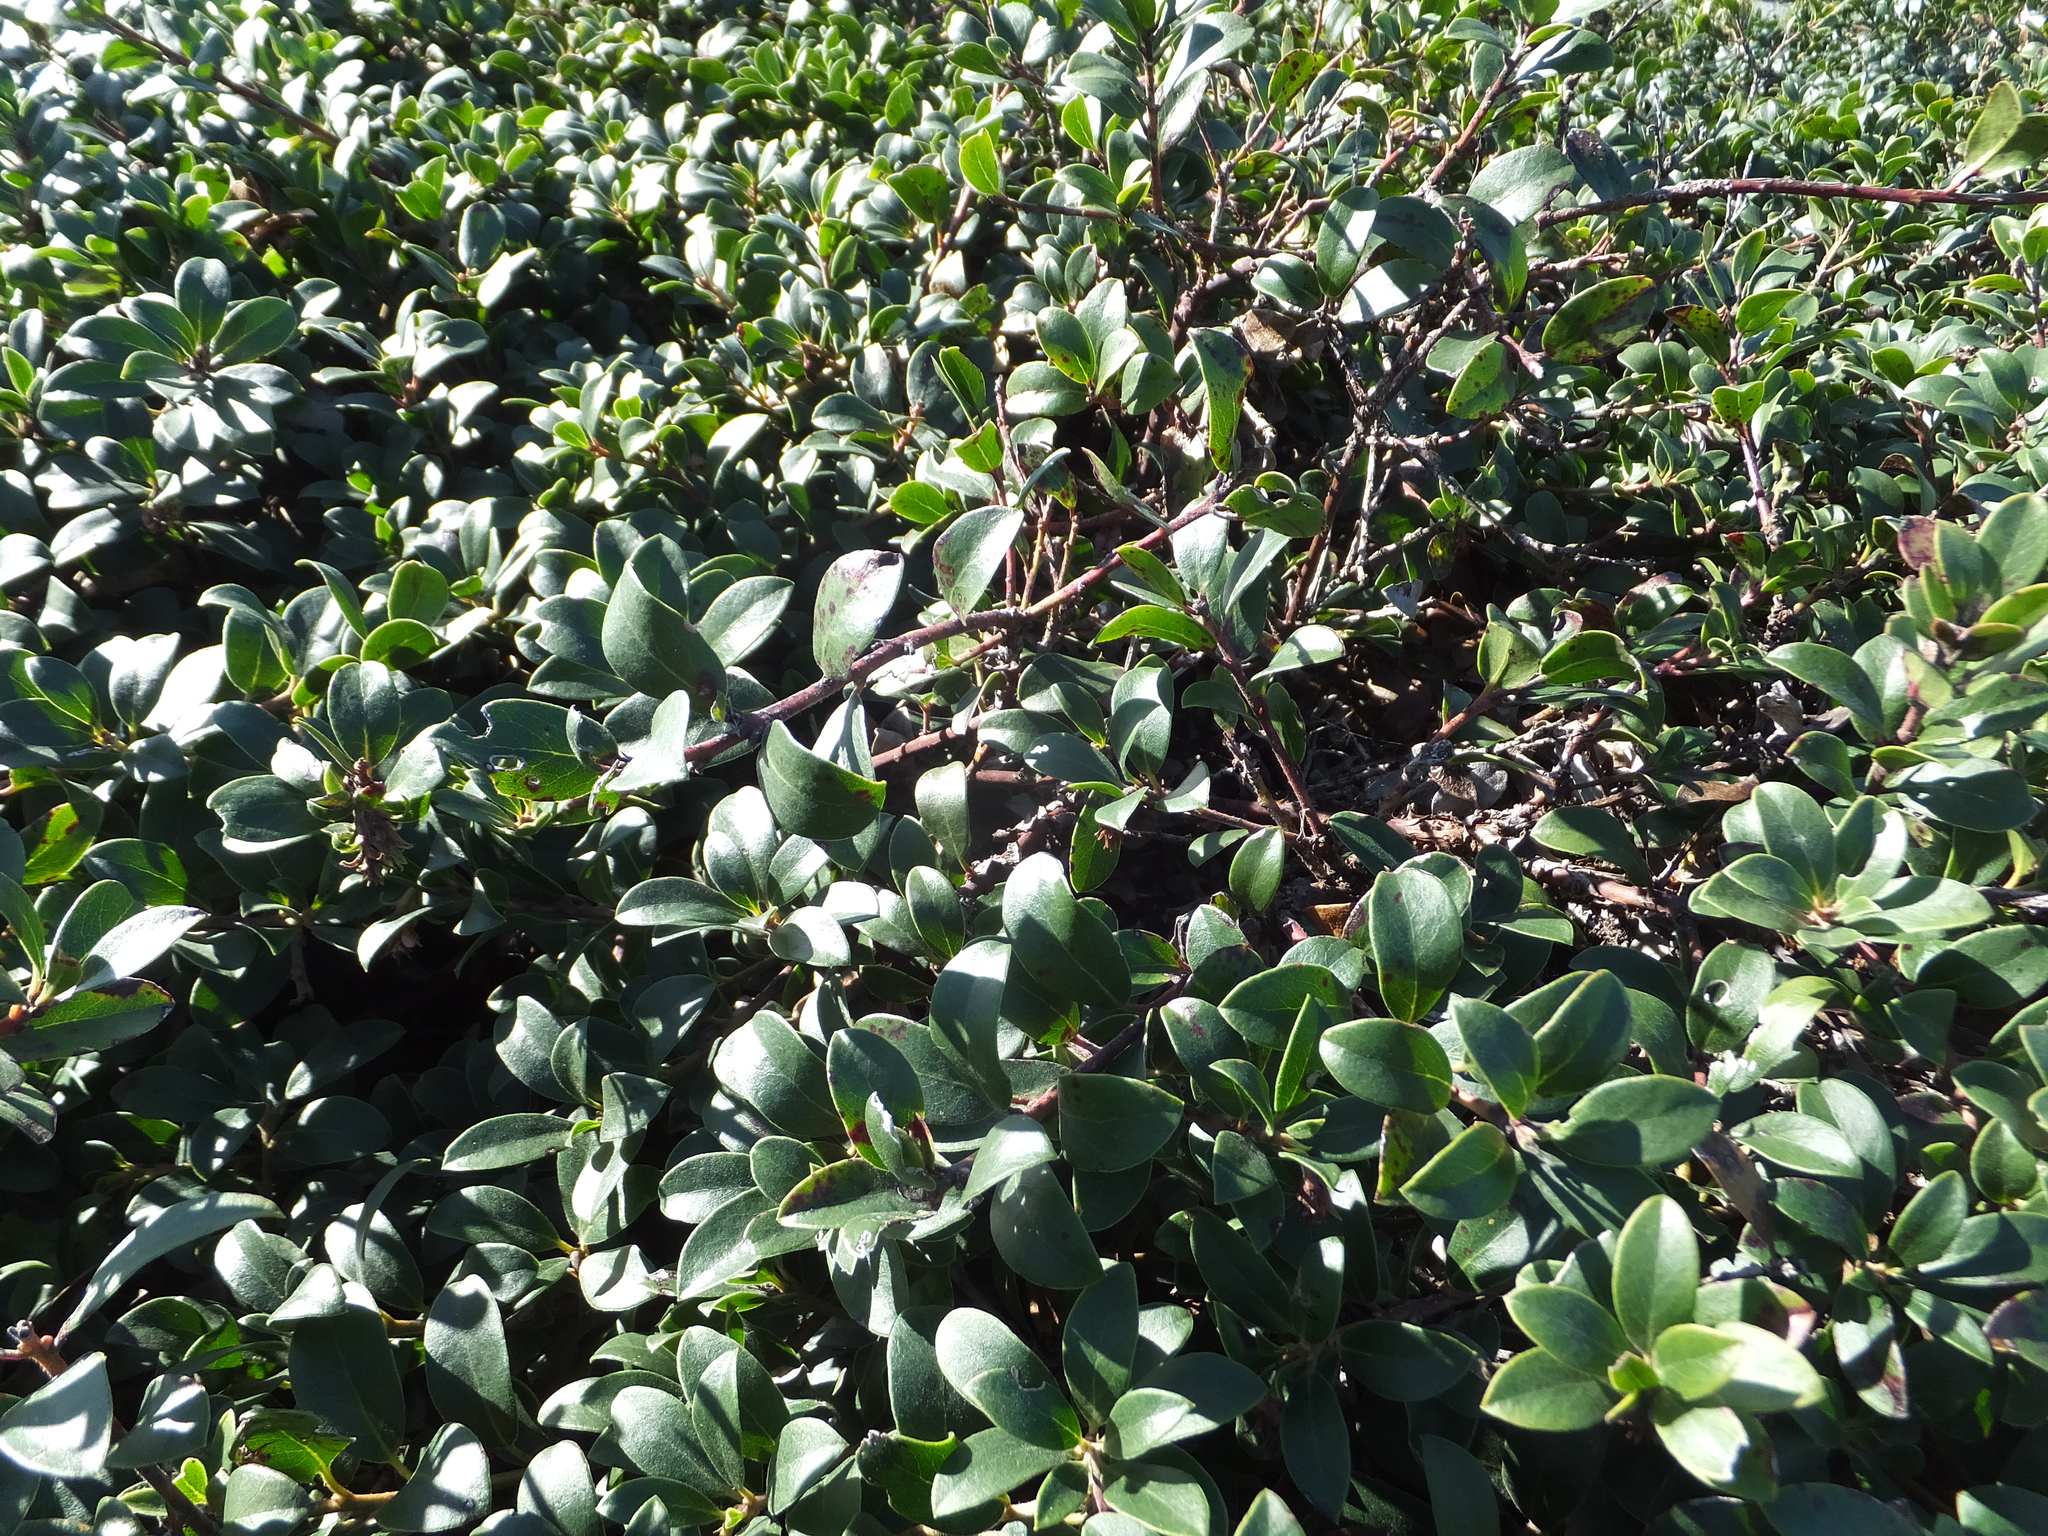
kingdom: Plantae
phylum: Tracheophyta
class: Magnoliopsida
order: Ericales
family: Ericaceae
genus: Arctostaphylos
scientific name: Arctostaphylos uva-ursi
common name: Bearberry
